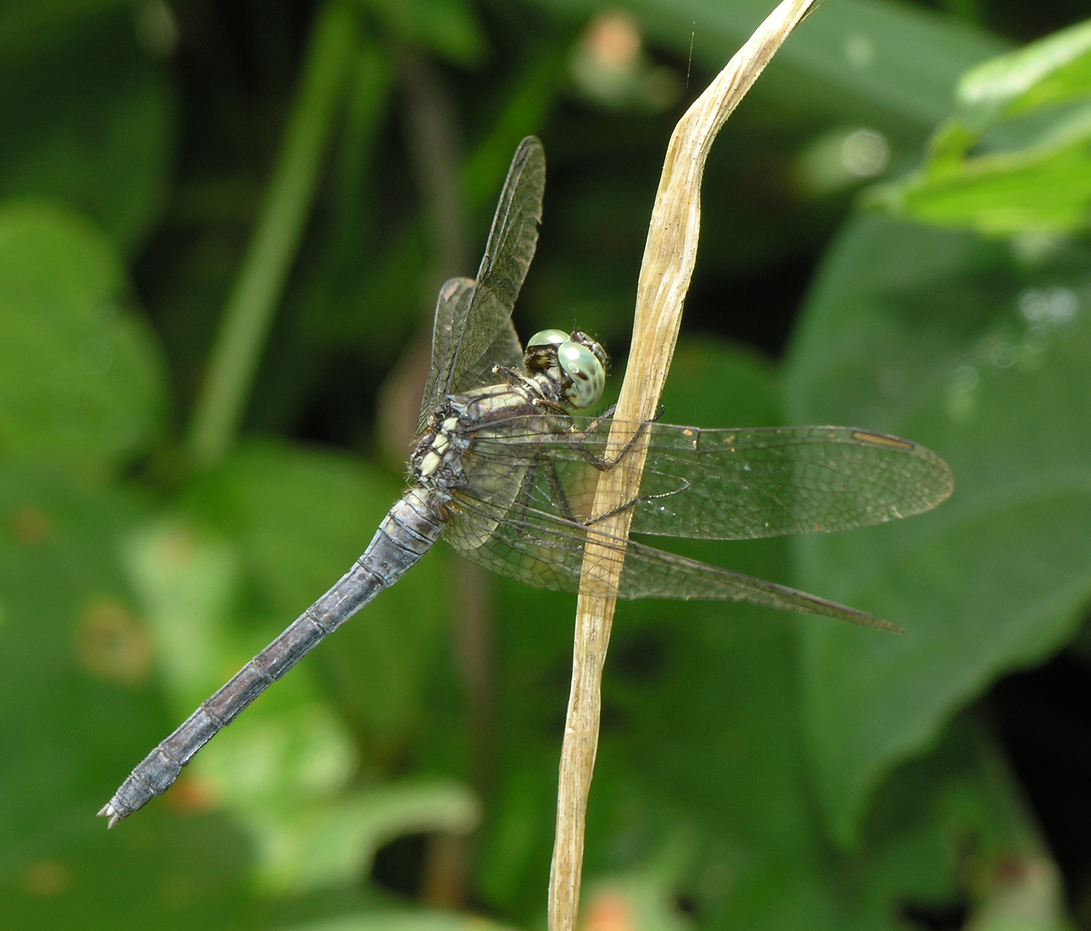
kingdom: Animalia
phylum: Arthropoda
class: Insecta
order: Odonata
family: Libellulidae
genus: Orthetrum
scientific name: Orthetrum luzonicum
